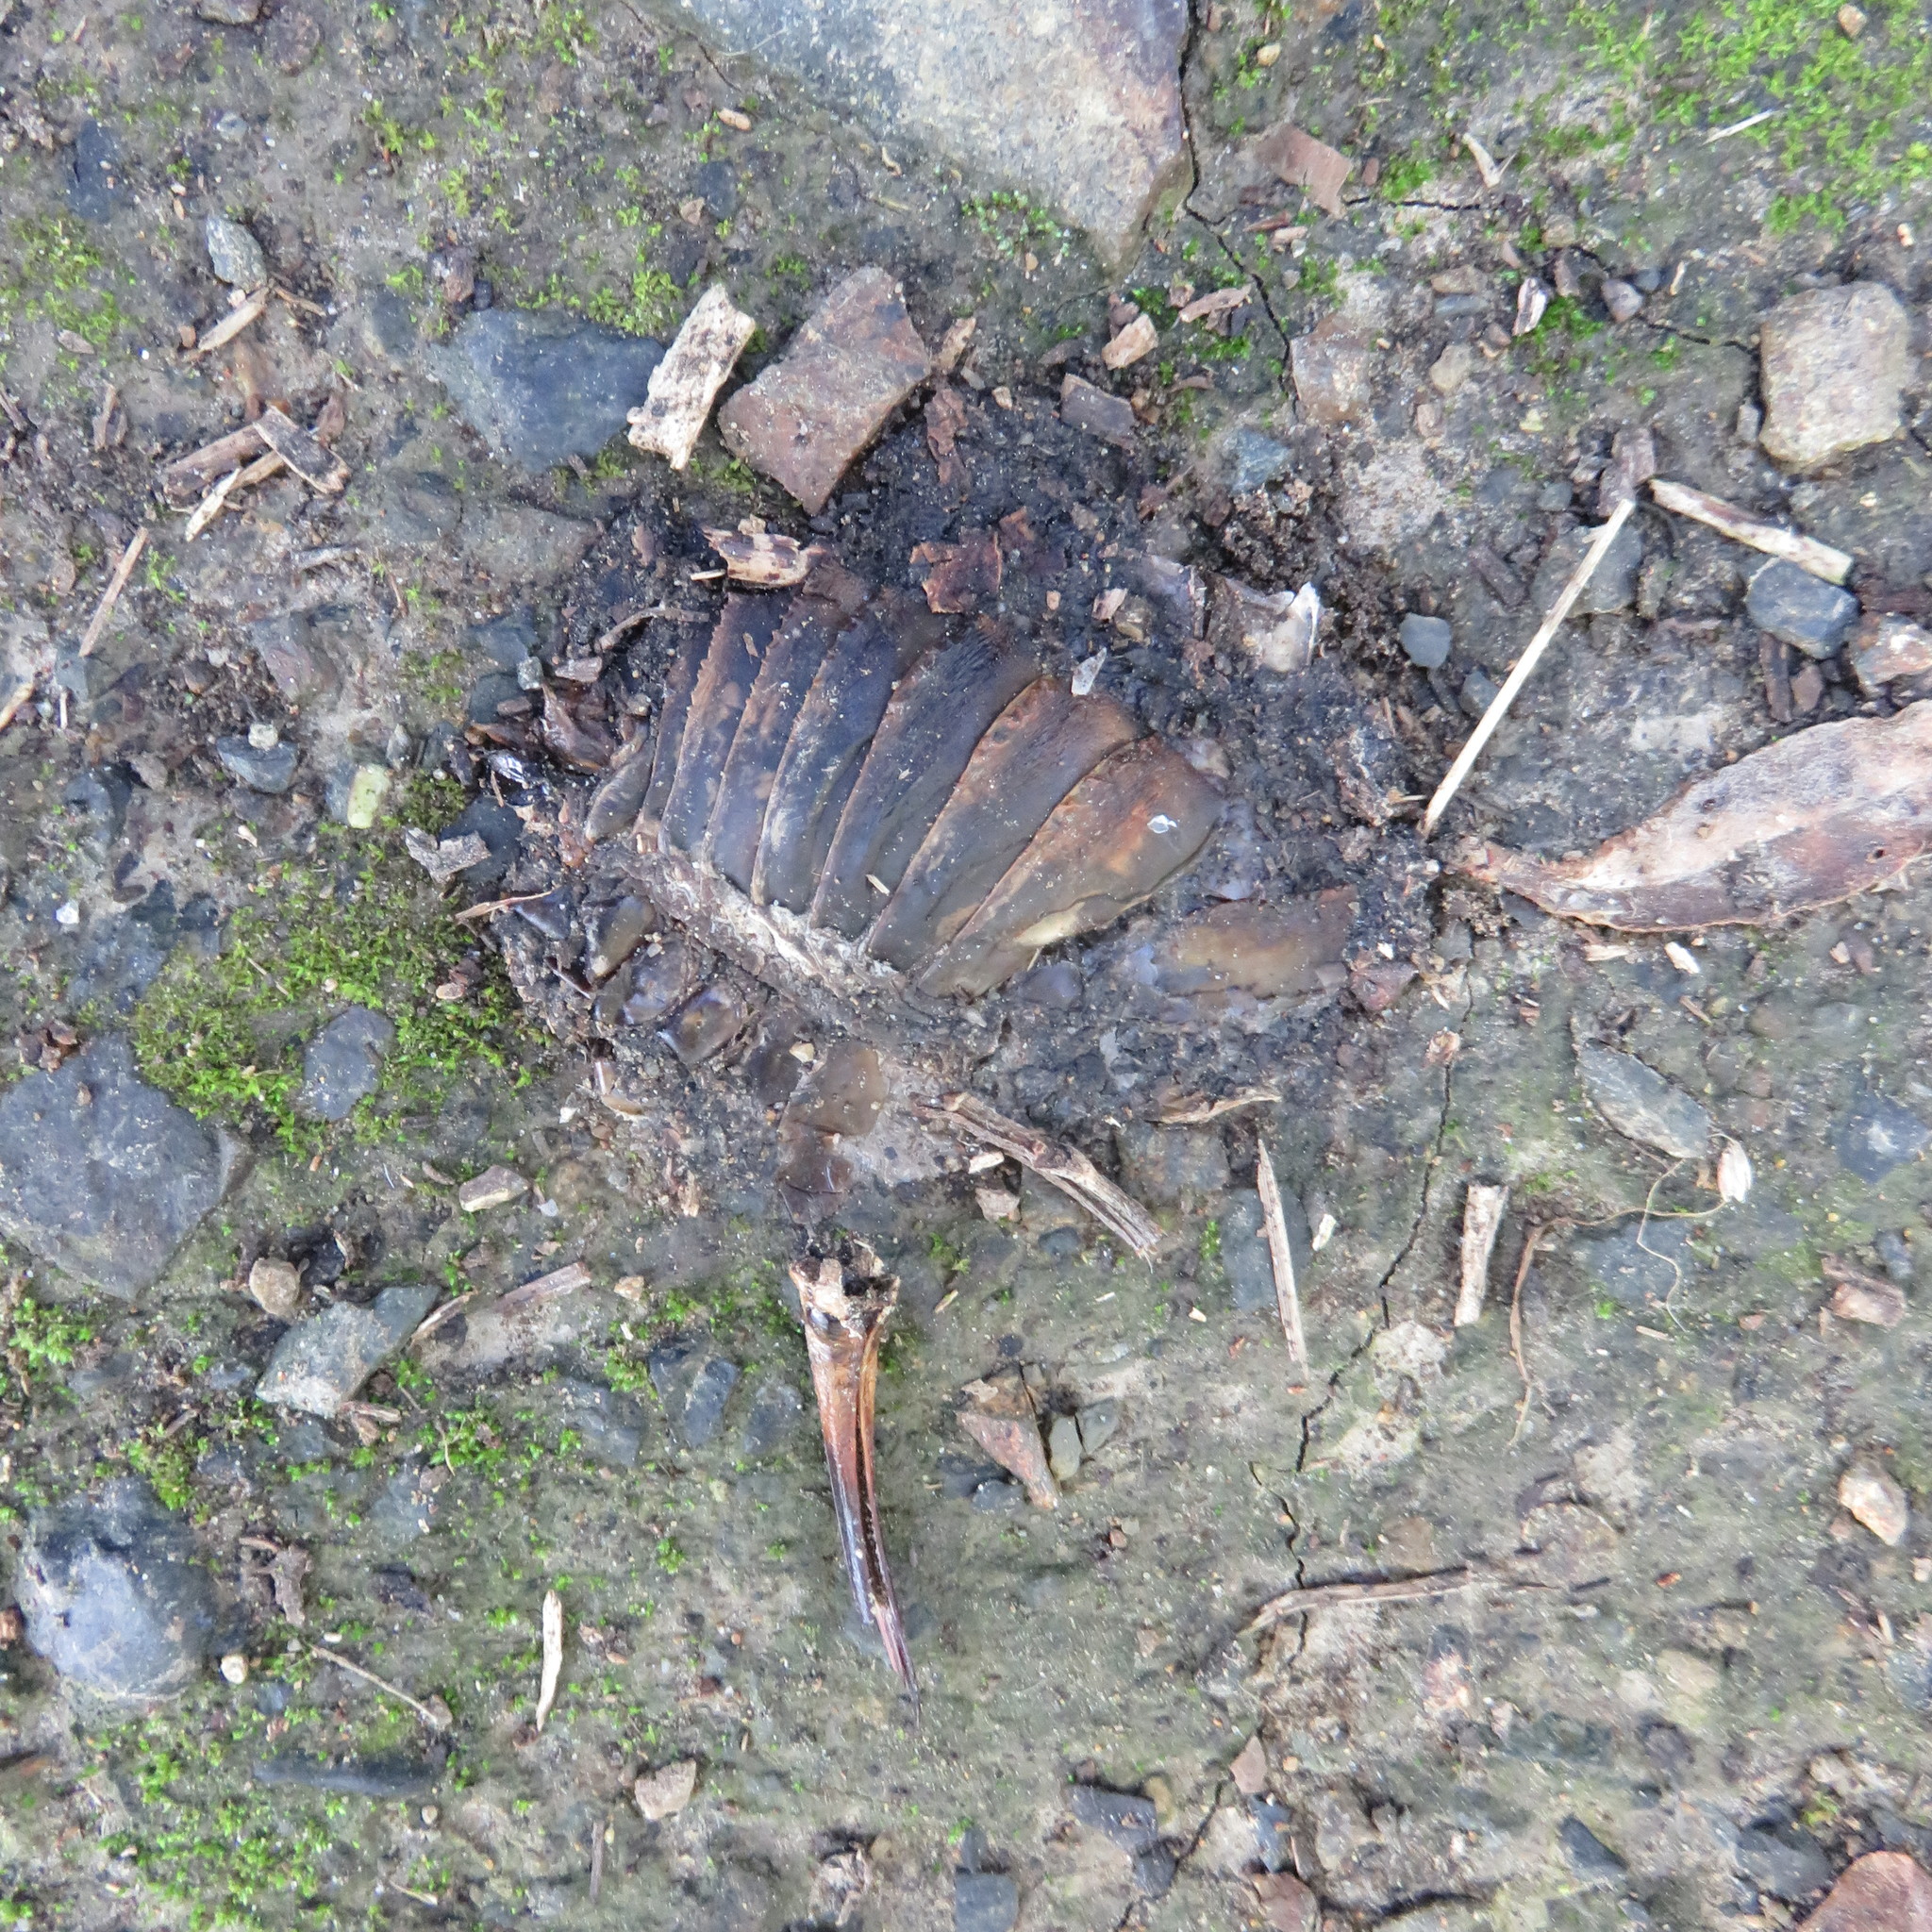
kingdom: Animalia
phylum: Arthropoda
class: Insecta
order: Orthoptera
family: Anostostomatidae
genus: Deinacrida
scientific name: Deinacrida rugosa
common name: Stephens island weta
